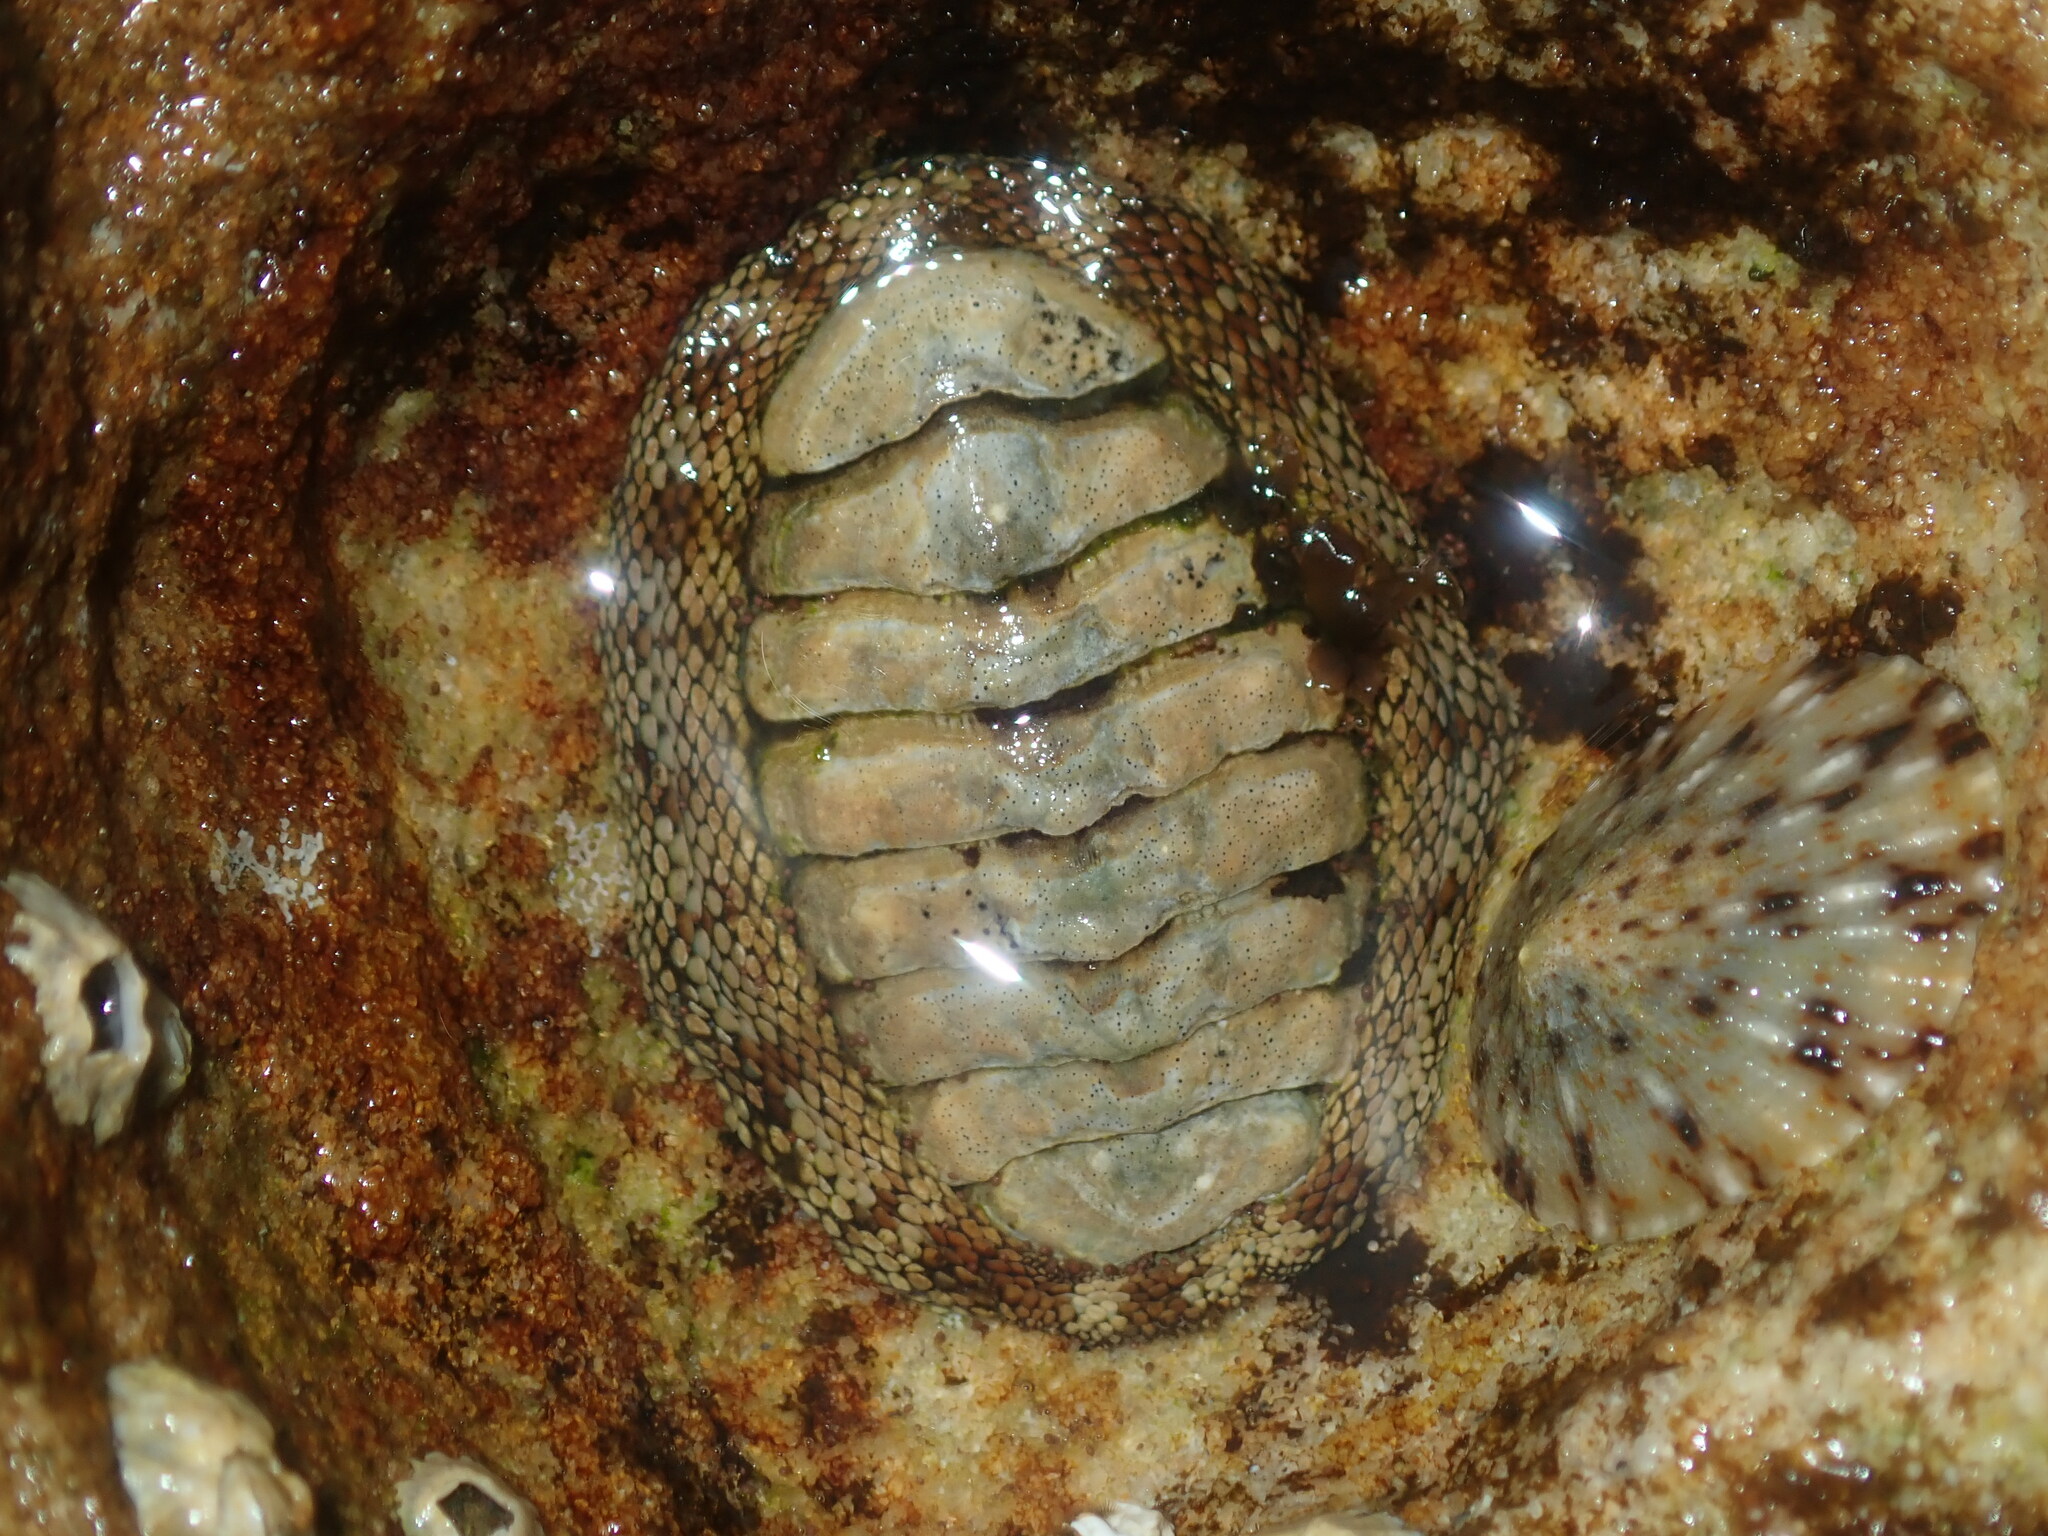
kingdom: Animalia
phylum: Mollusca
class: Polyplacophora
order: Chitonida
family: Chitonidae
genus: Sypharochiton
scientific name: Sypharochiton pelliserpentis
